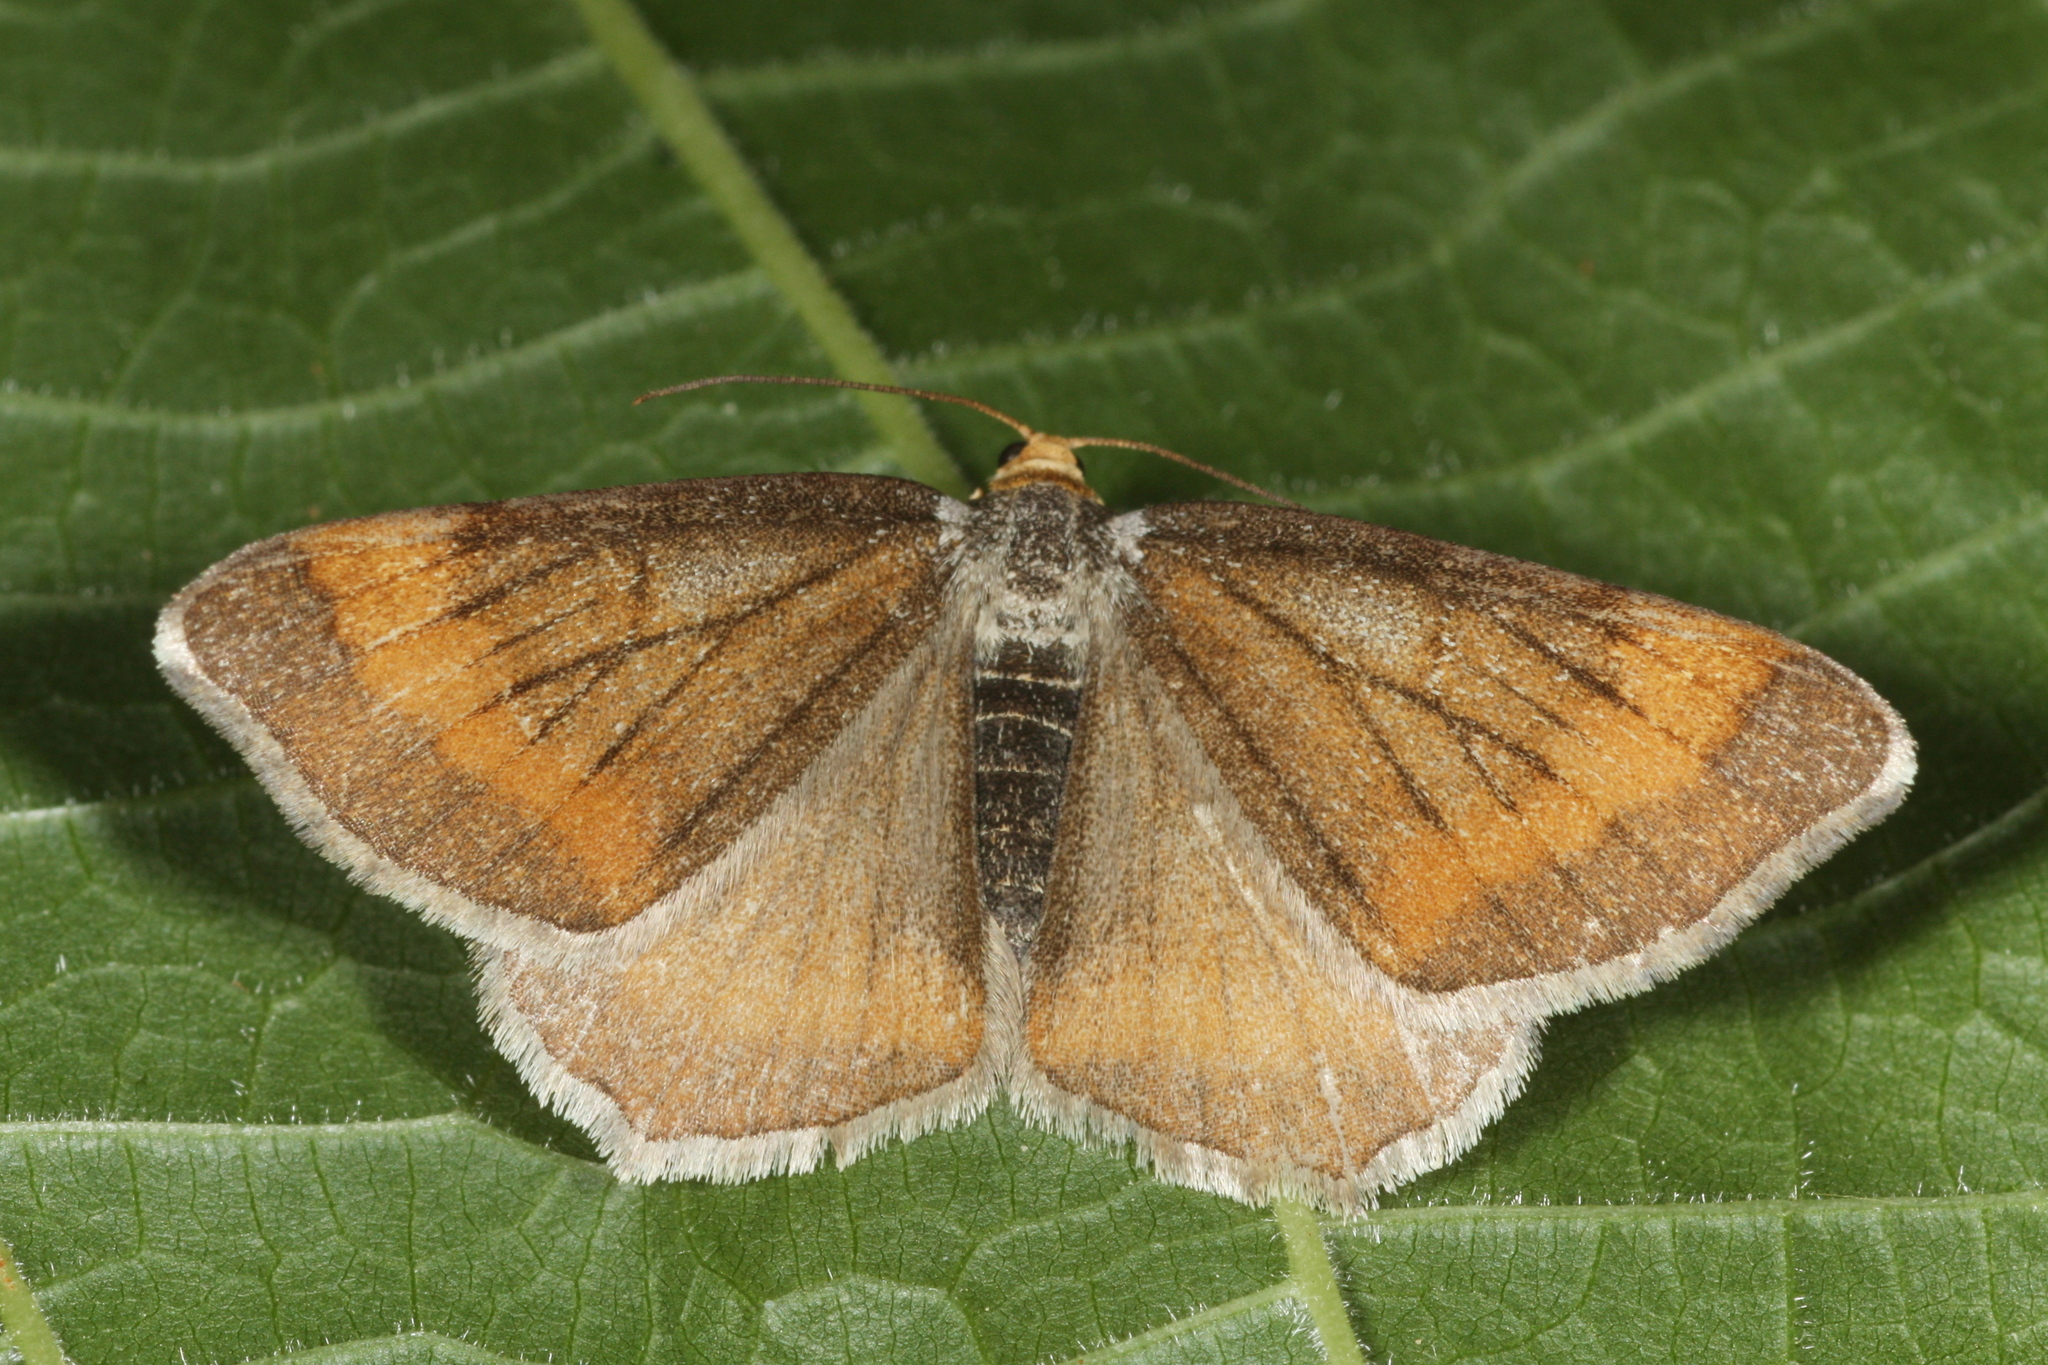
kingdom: Animalia
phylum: Arthropoda
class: Insecta
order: Lepidoptera
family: Geometridae
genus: Macaria
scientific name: Macaria liturata
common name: Tawny-barred angle
